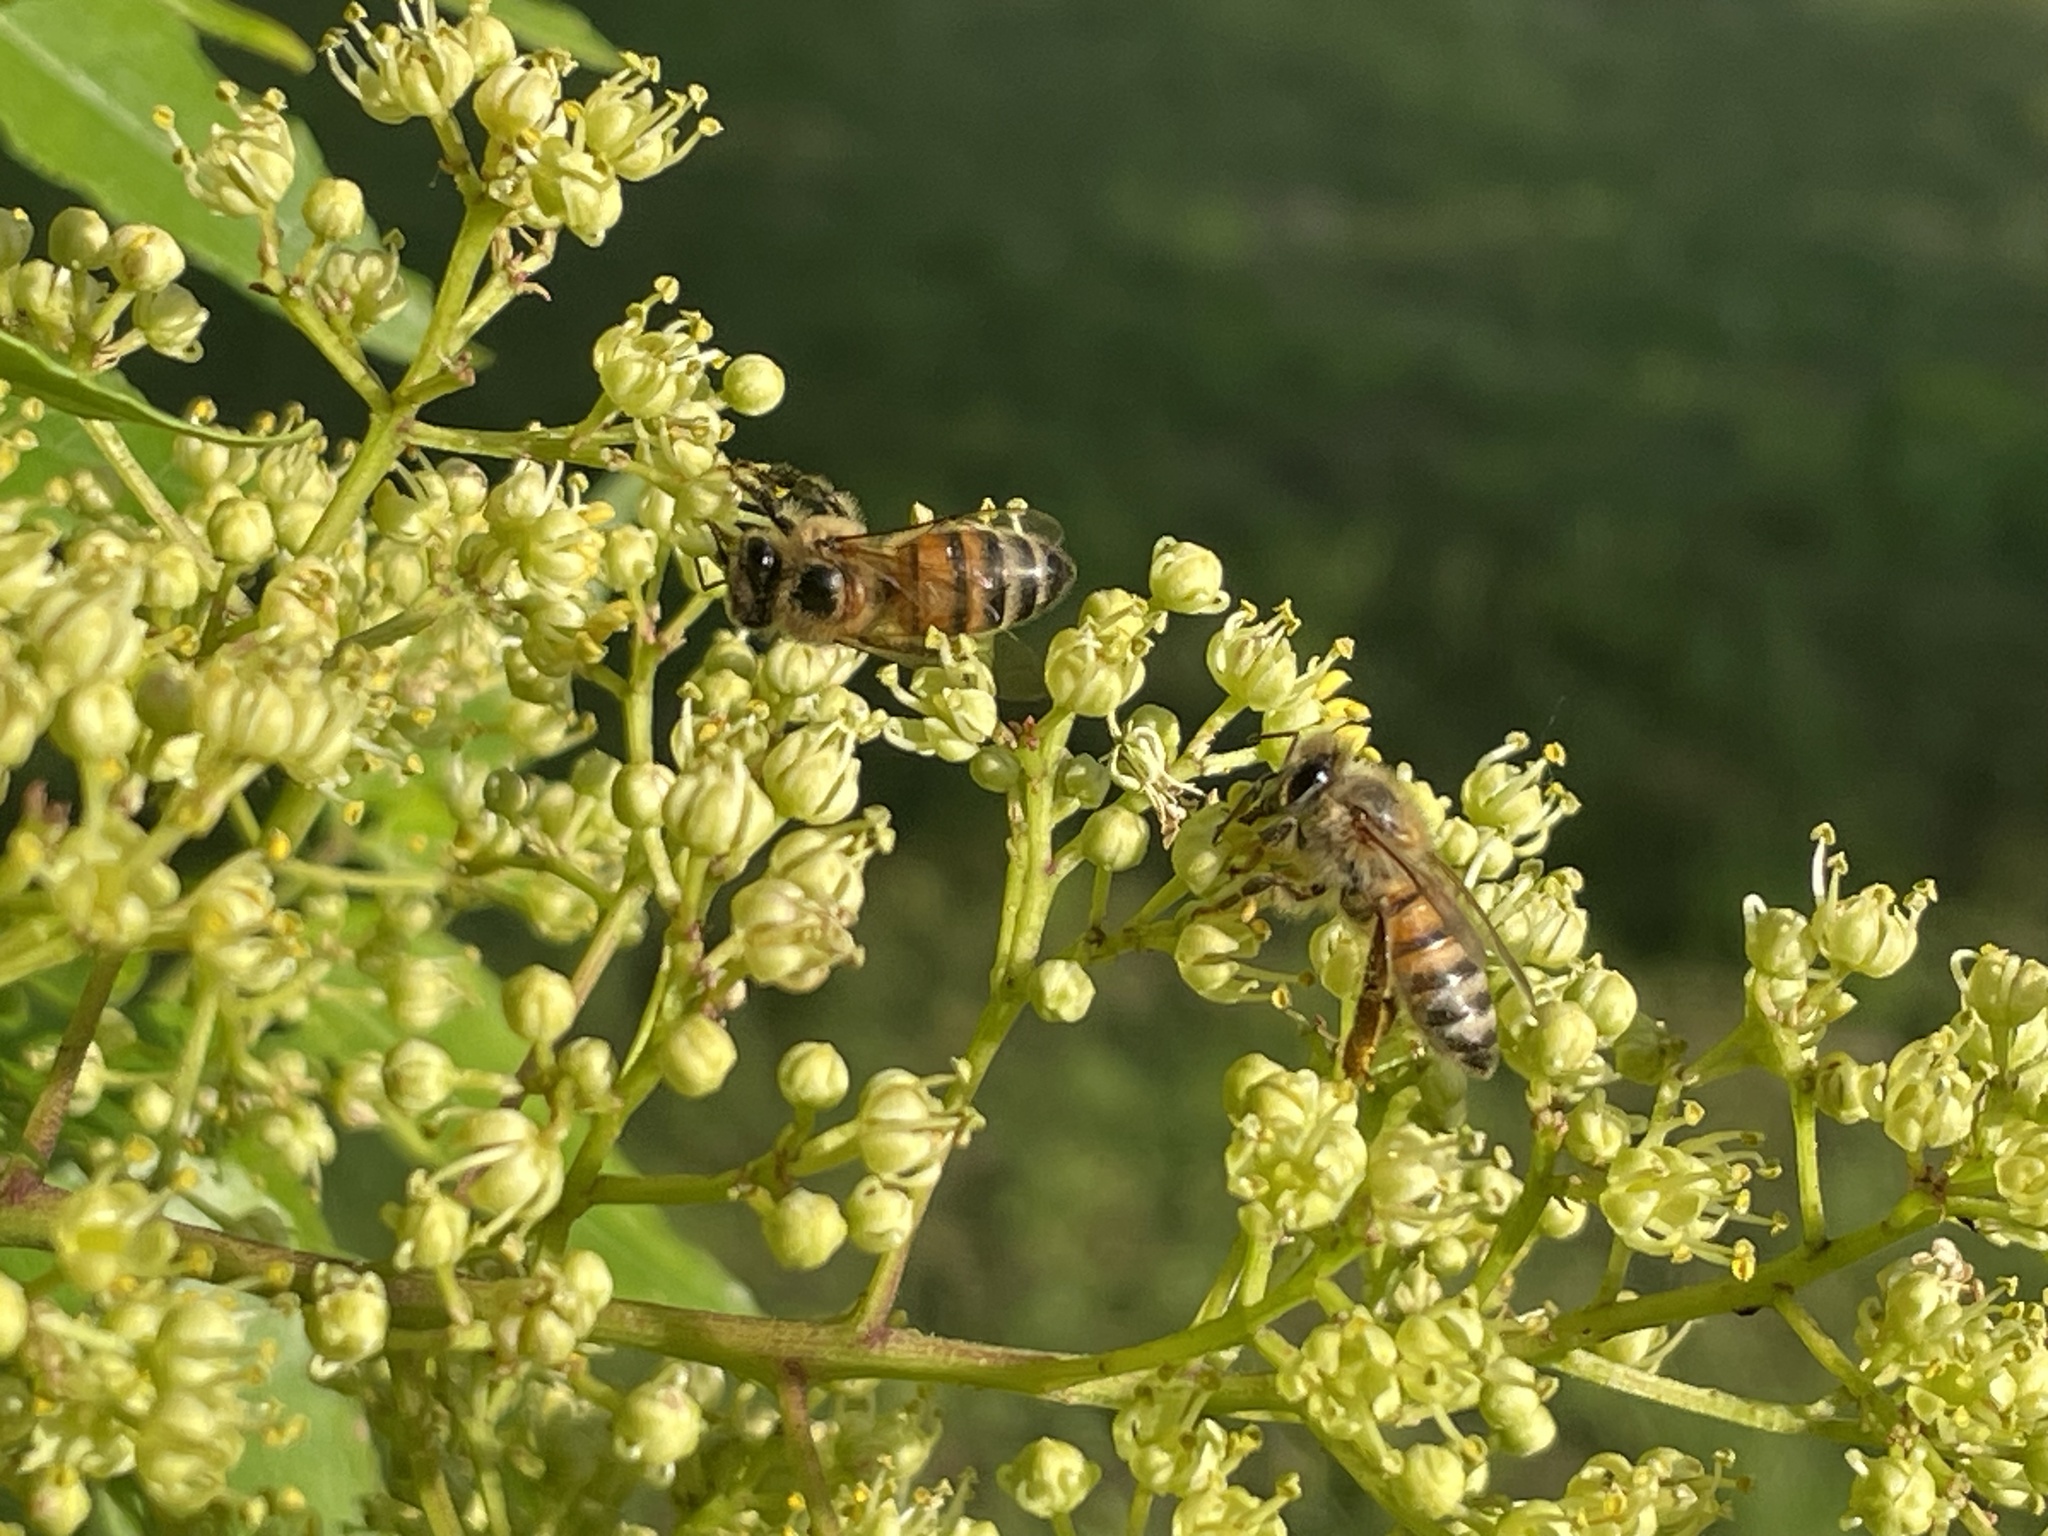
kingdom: Animalia
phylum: Arthropoda
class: Insecta
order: Hymenoptera
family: Apidae
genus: Apis
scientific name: Apis mellifera
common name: Honey bee
